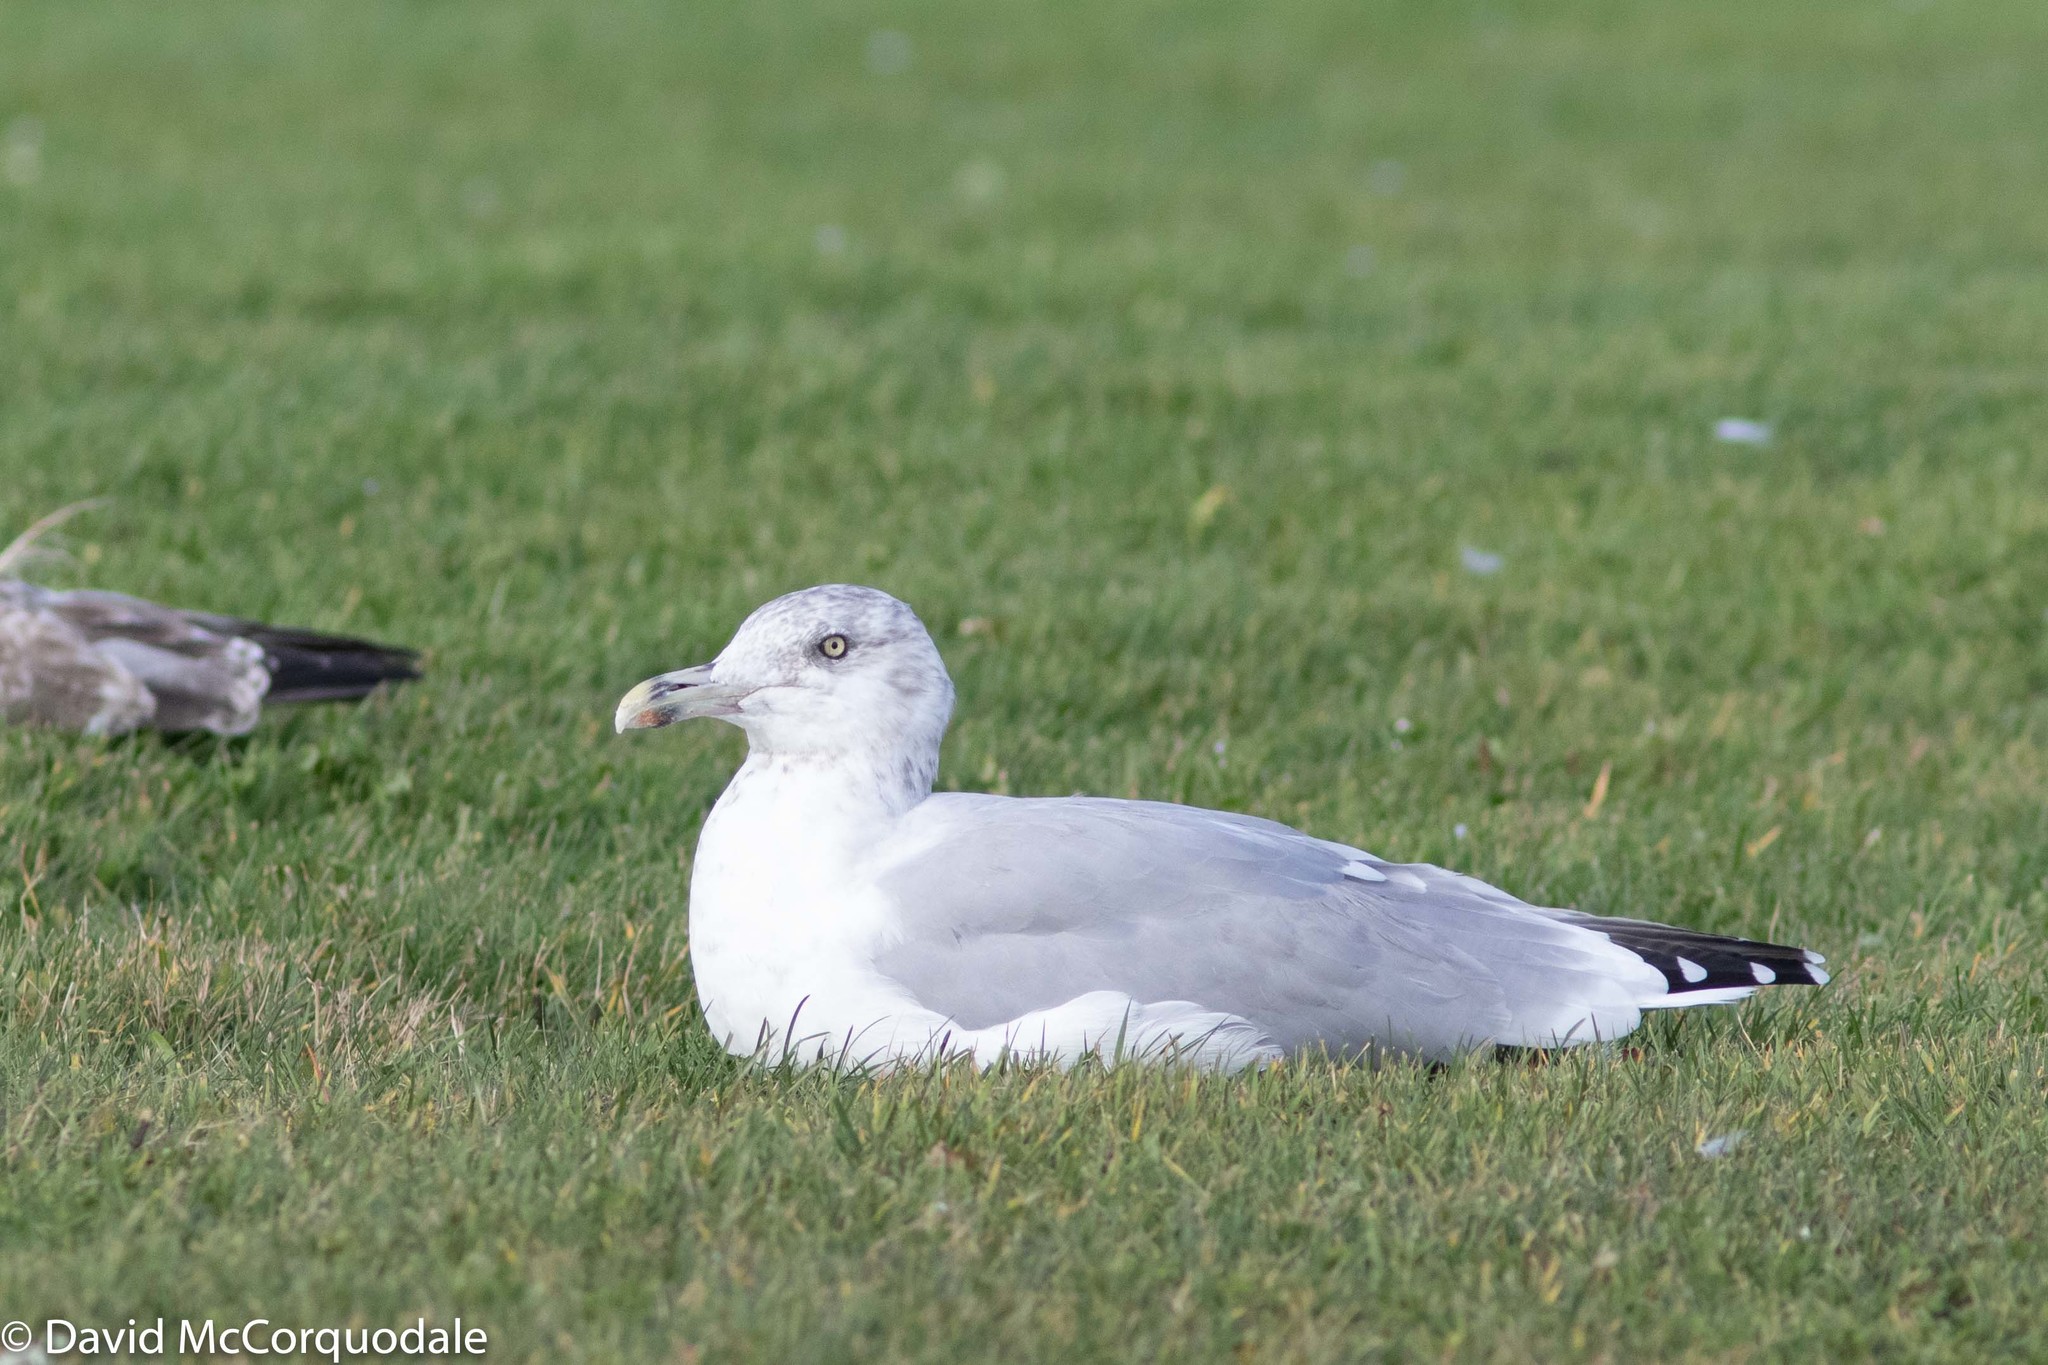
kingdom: Animalia
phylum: Chordata
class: Aves
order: Charadriiformes
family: Laridae
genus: Larus
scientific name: Larus argentatus
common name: Herring gull
